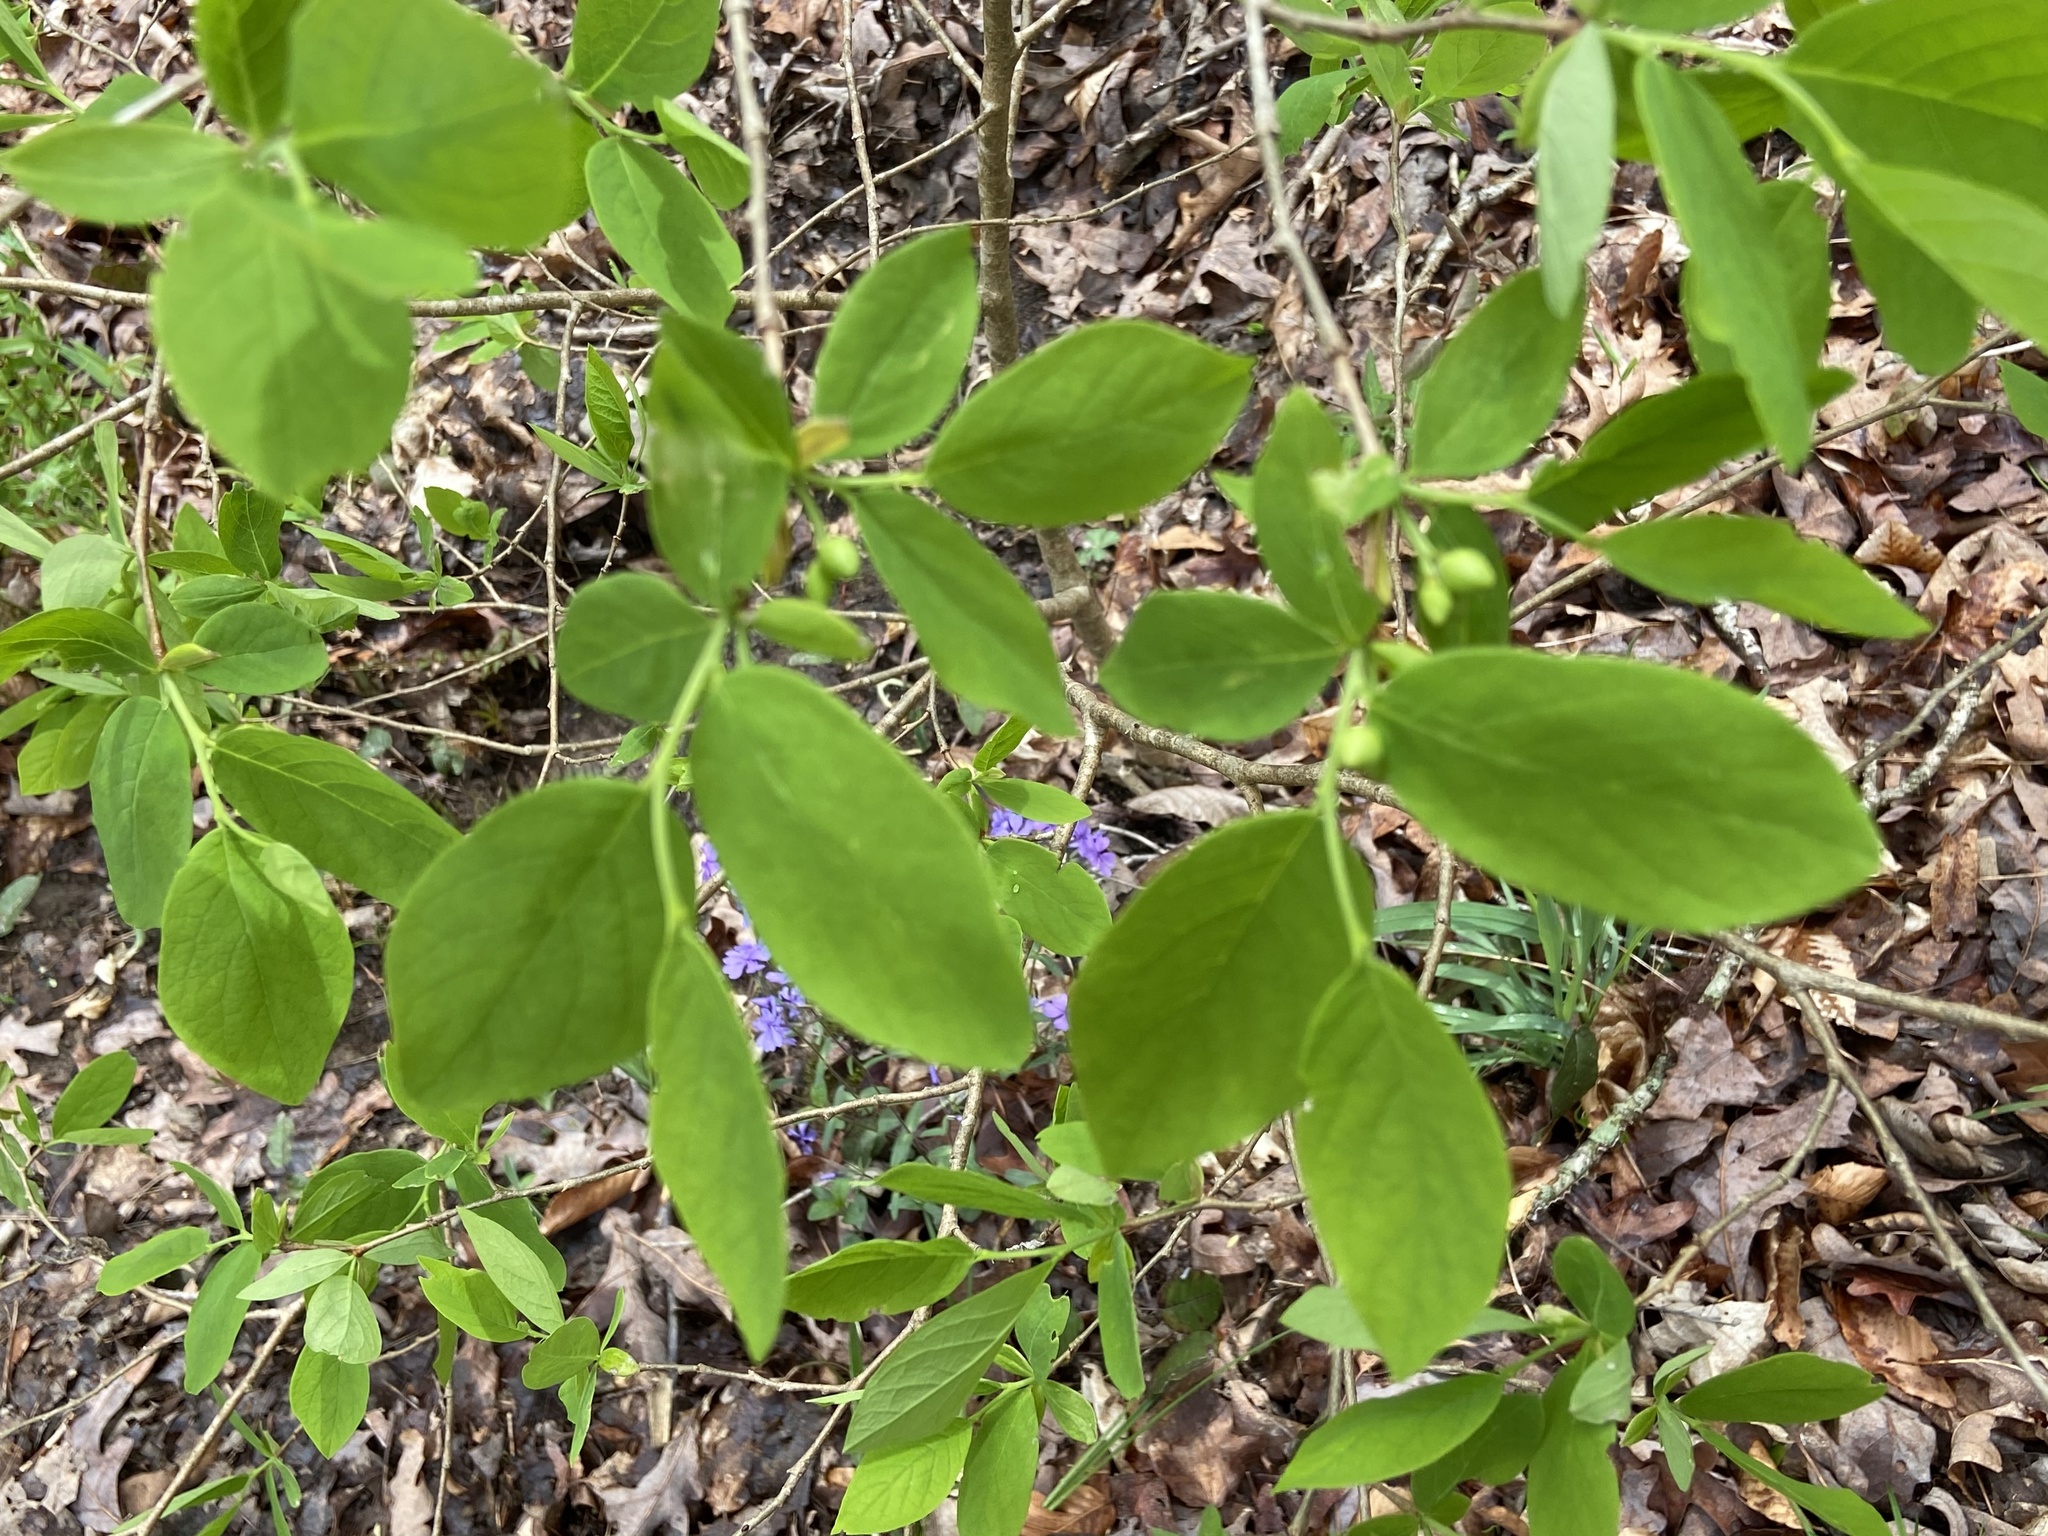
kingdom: Plantae
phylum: Tracheophyta
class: Magnoliopsida
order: Malvales
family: Thymelaeaceae
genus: Dirca
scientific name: Dirca palustris
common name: Leatherwood
